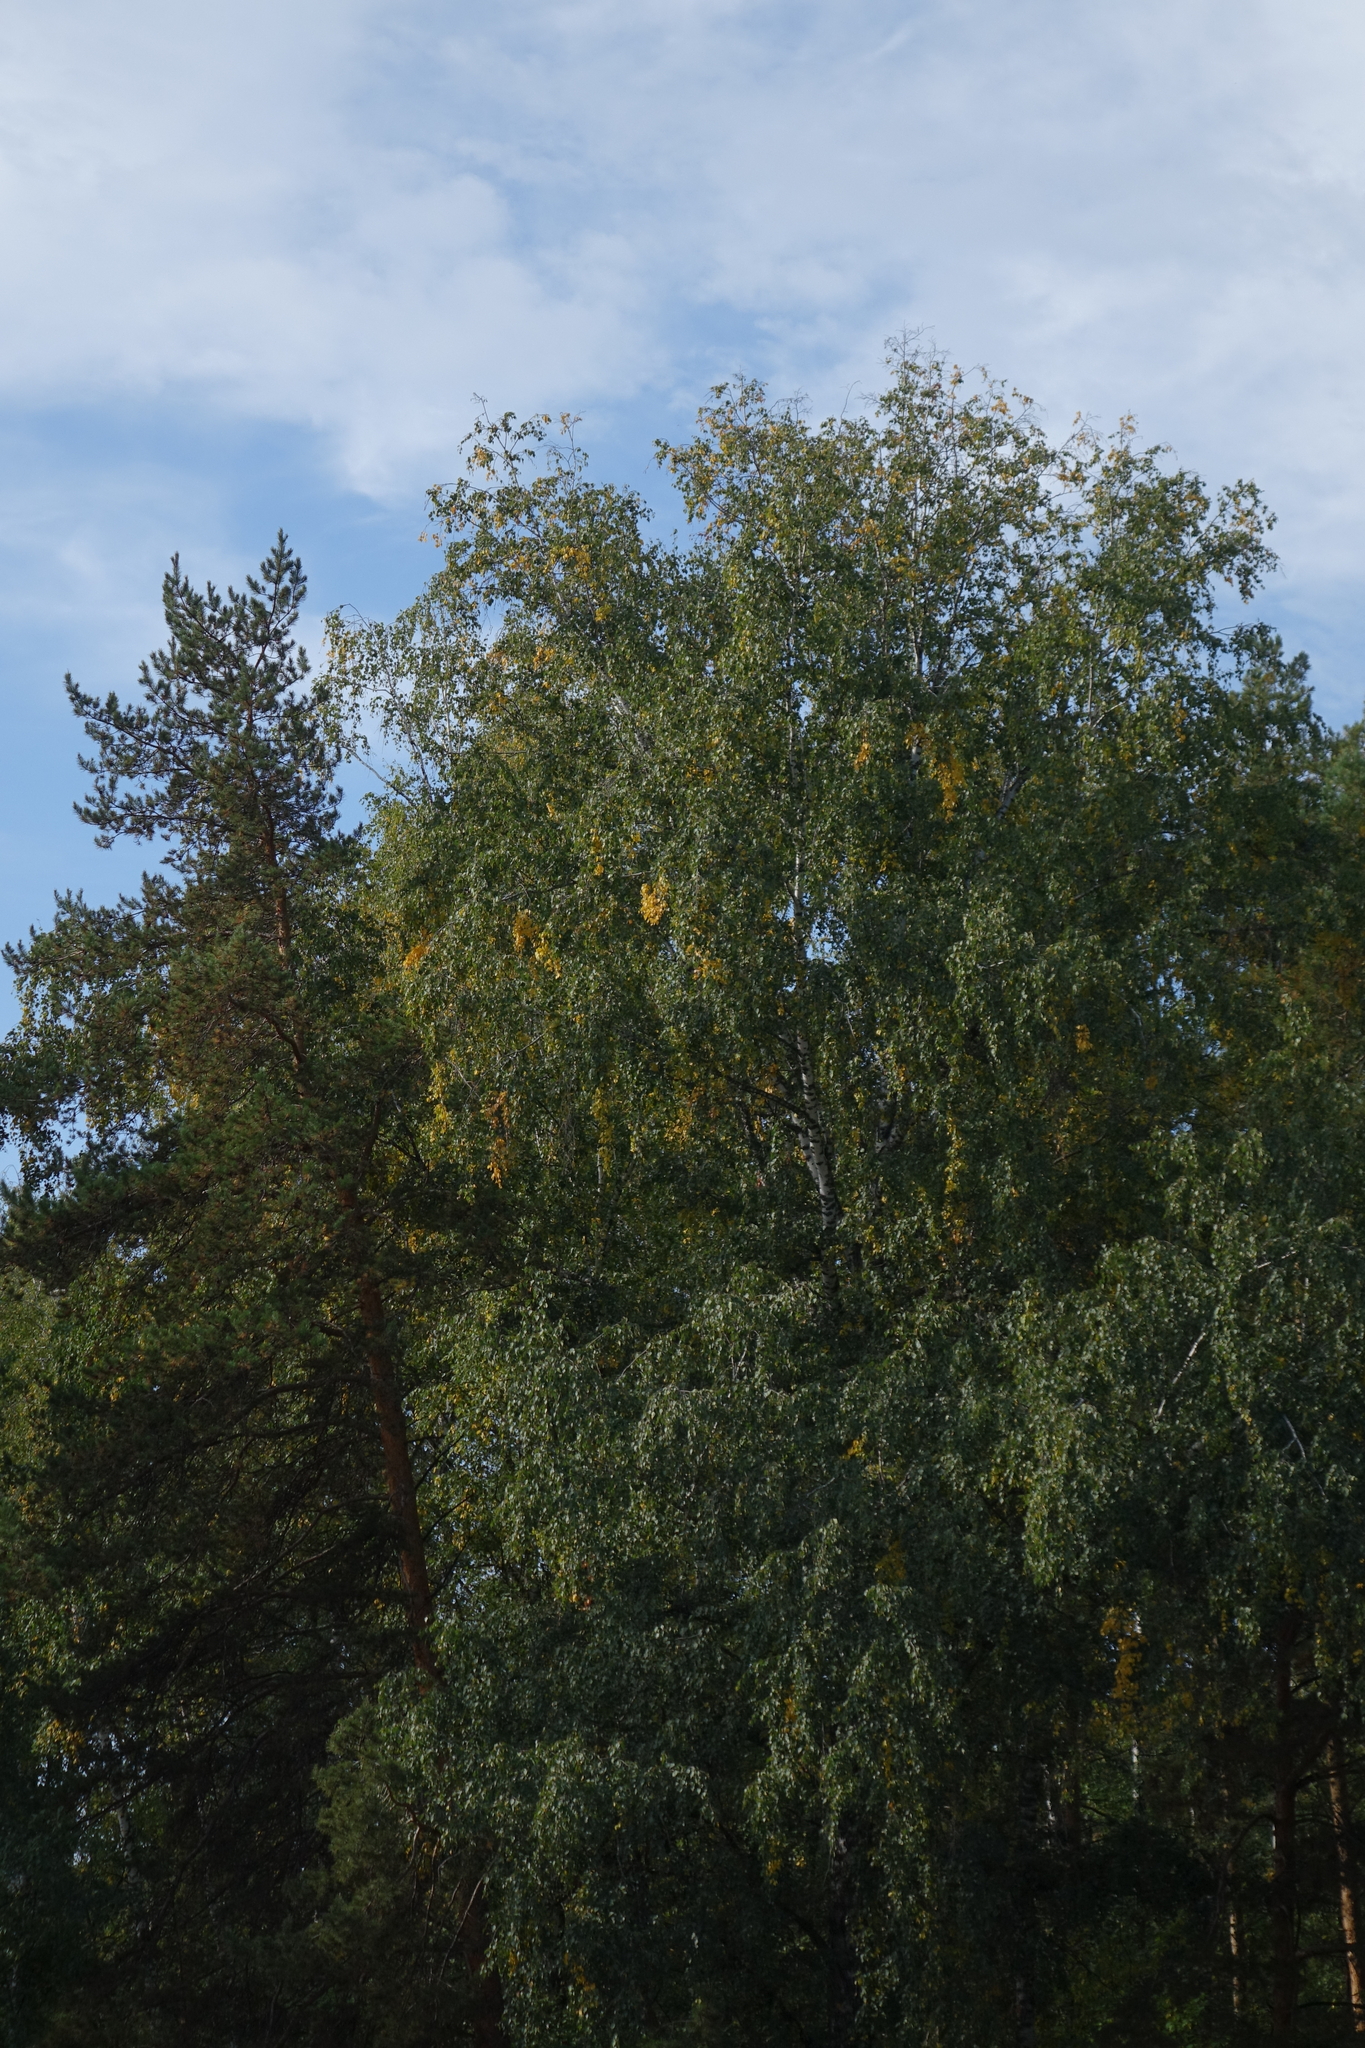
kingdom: Plantae
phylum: Tracheophyta
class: Magnoliopsida
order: Fagales
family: Betulaceae
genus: Betula
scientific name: Betula pendula
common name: Silver birch
